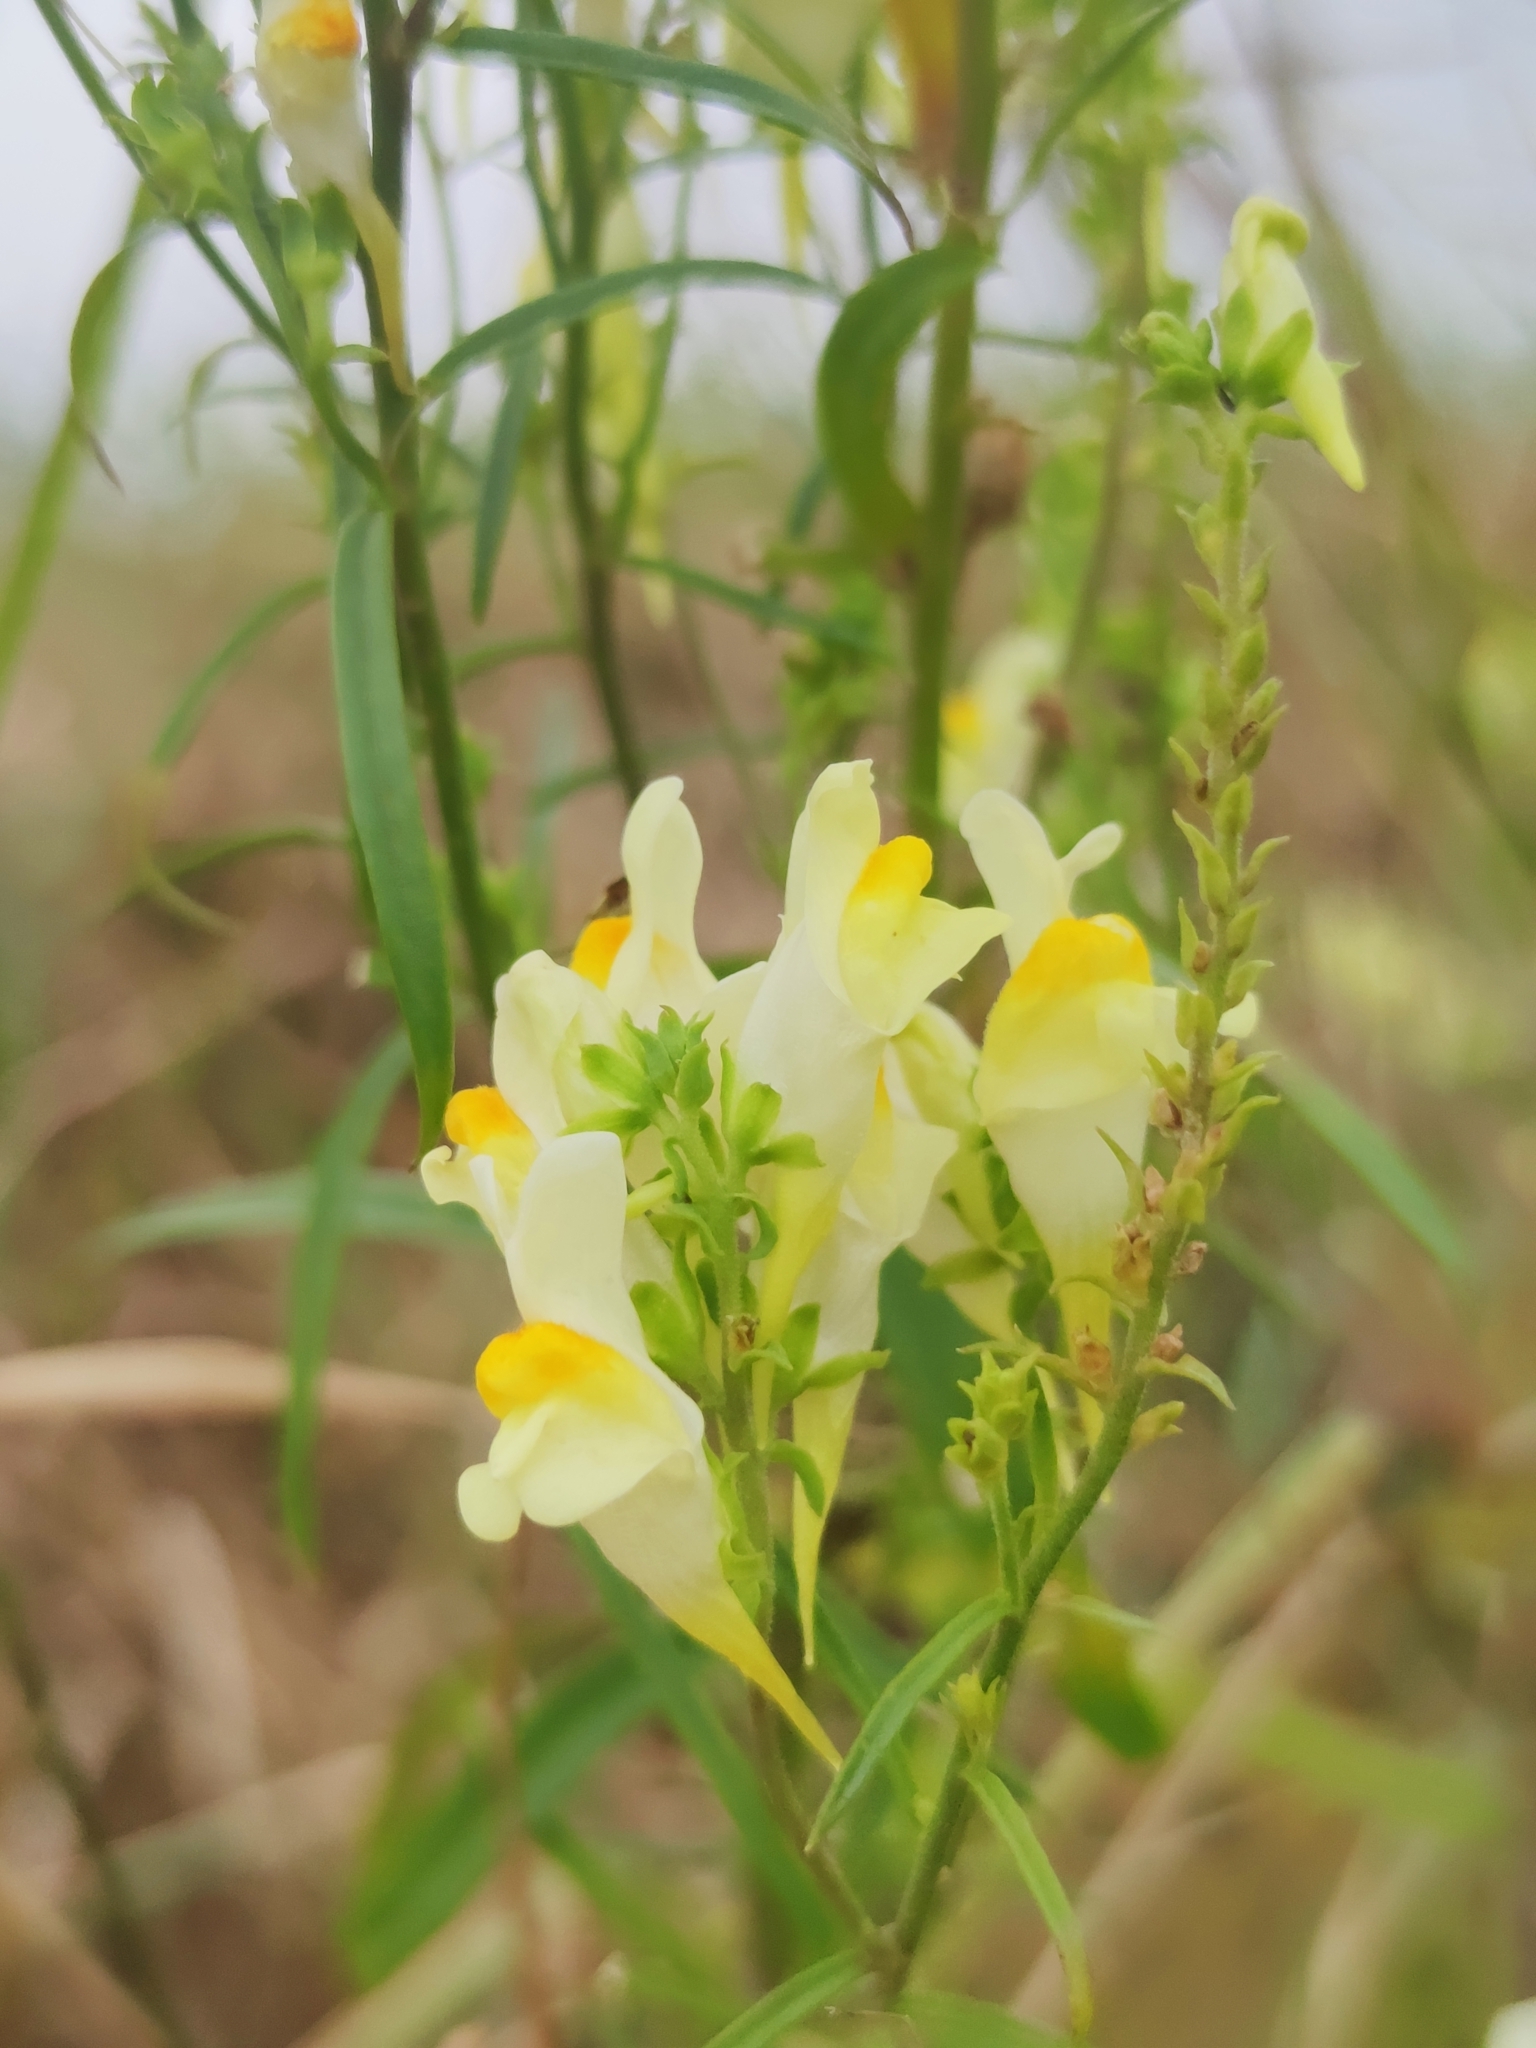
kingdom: Plantae
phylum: Tracheophyta
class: Magnoliopsida
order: Lamiales
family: Plantaginaceae
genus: Linaria
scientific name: Linaria vulgaris
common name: Butter and eggs
